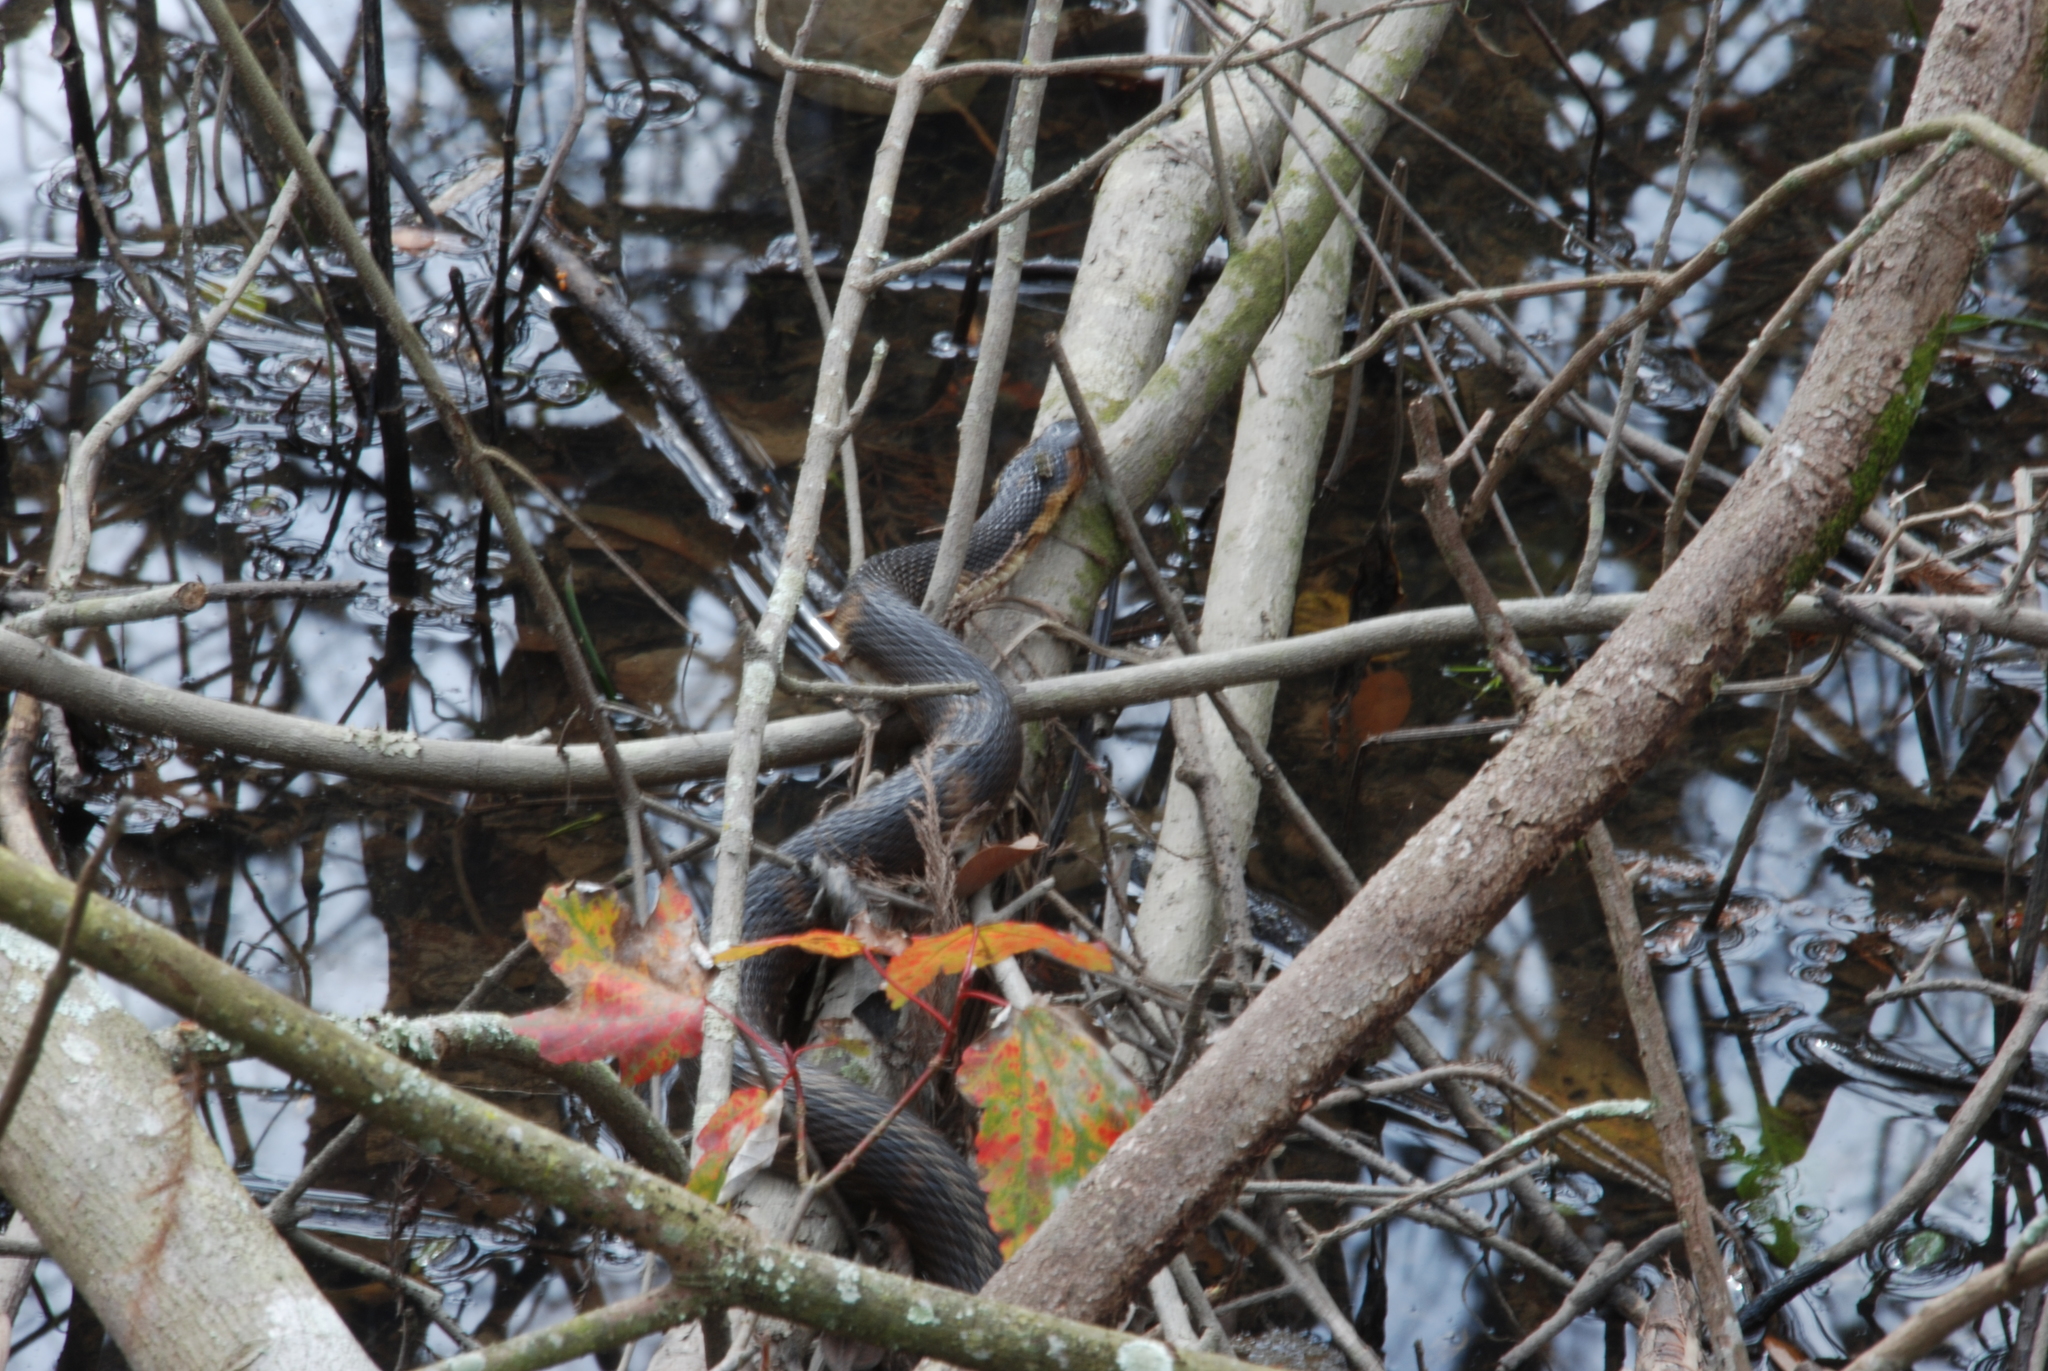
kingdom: Animalia
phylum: Chordata
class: Squamata
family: Colubridae
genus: Nerodia
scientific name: Nerodia fasciata
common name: Southern water snake
